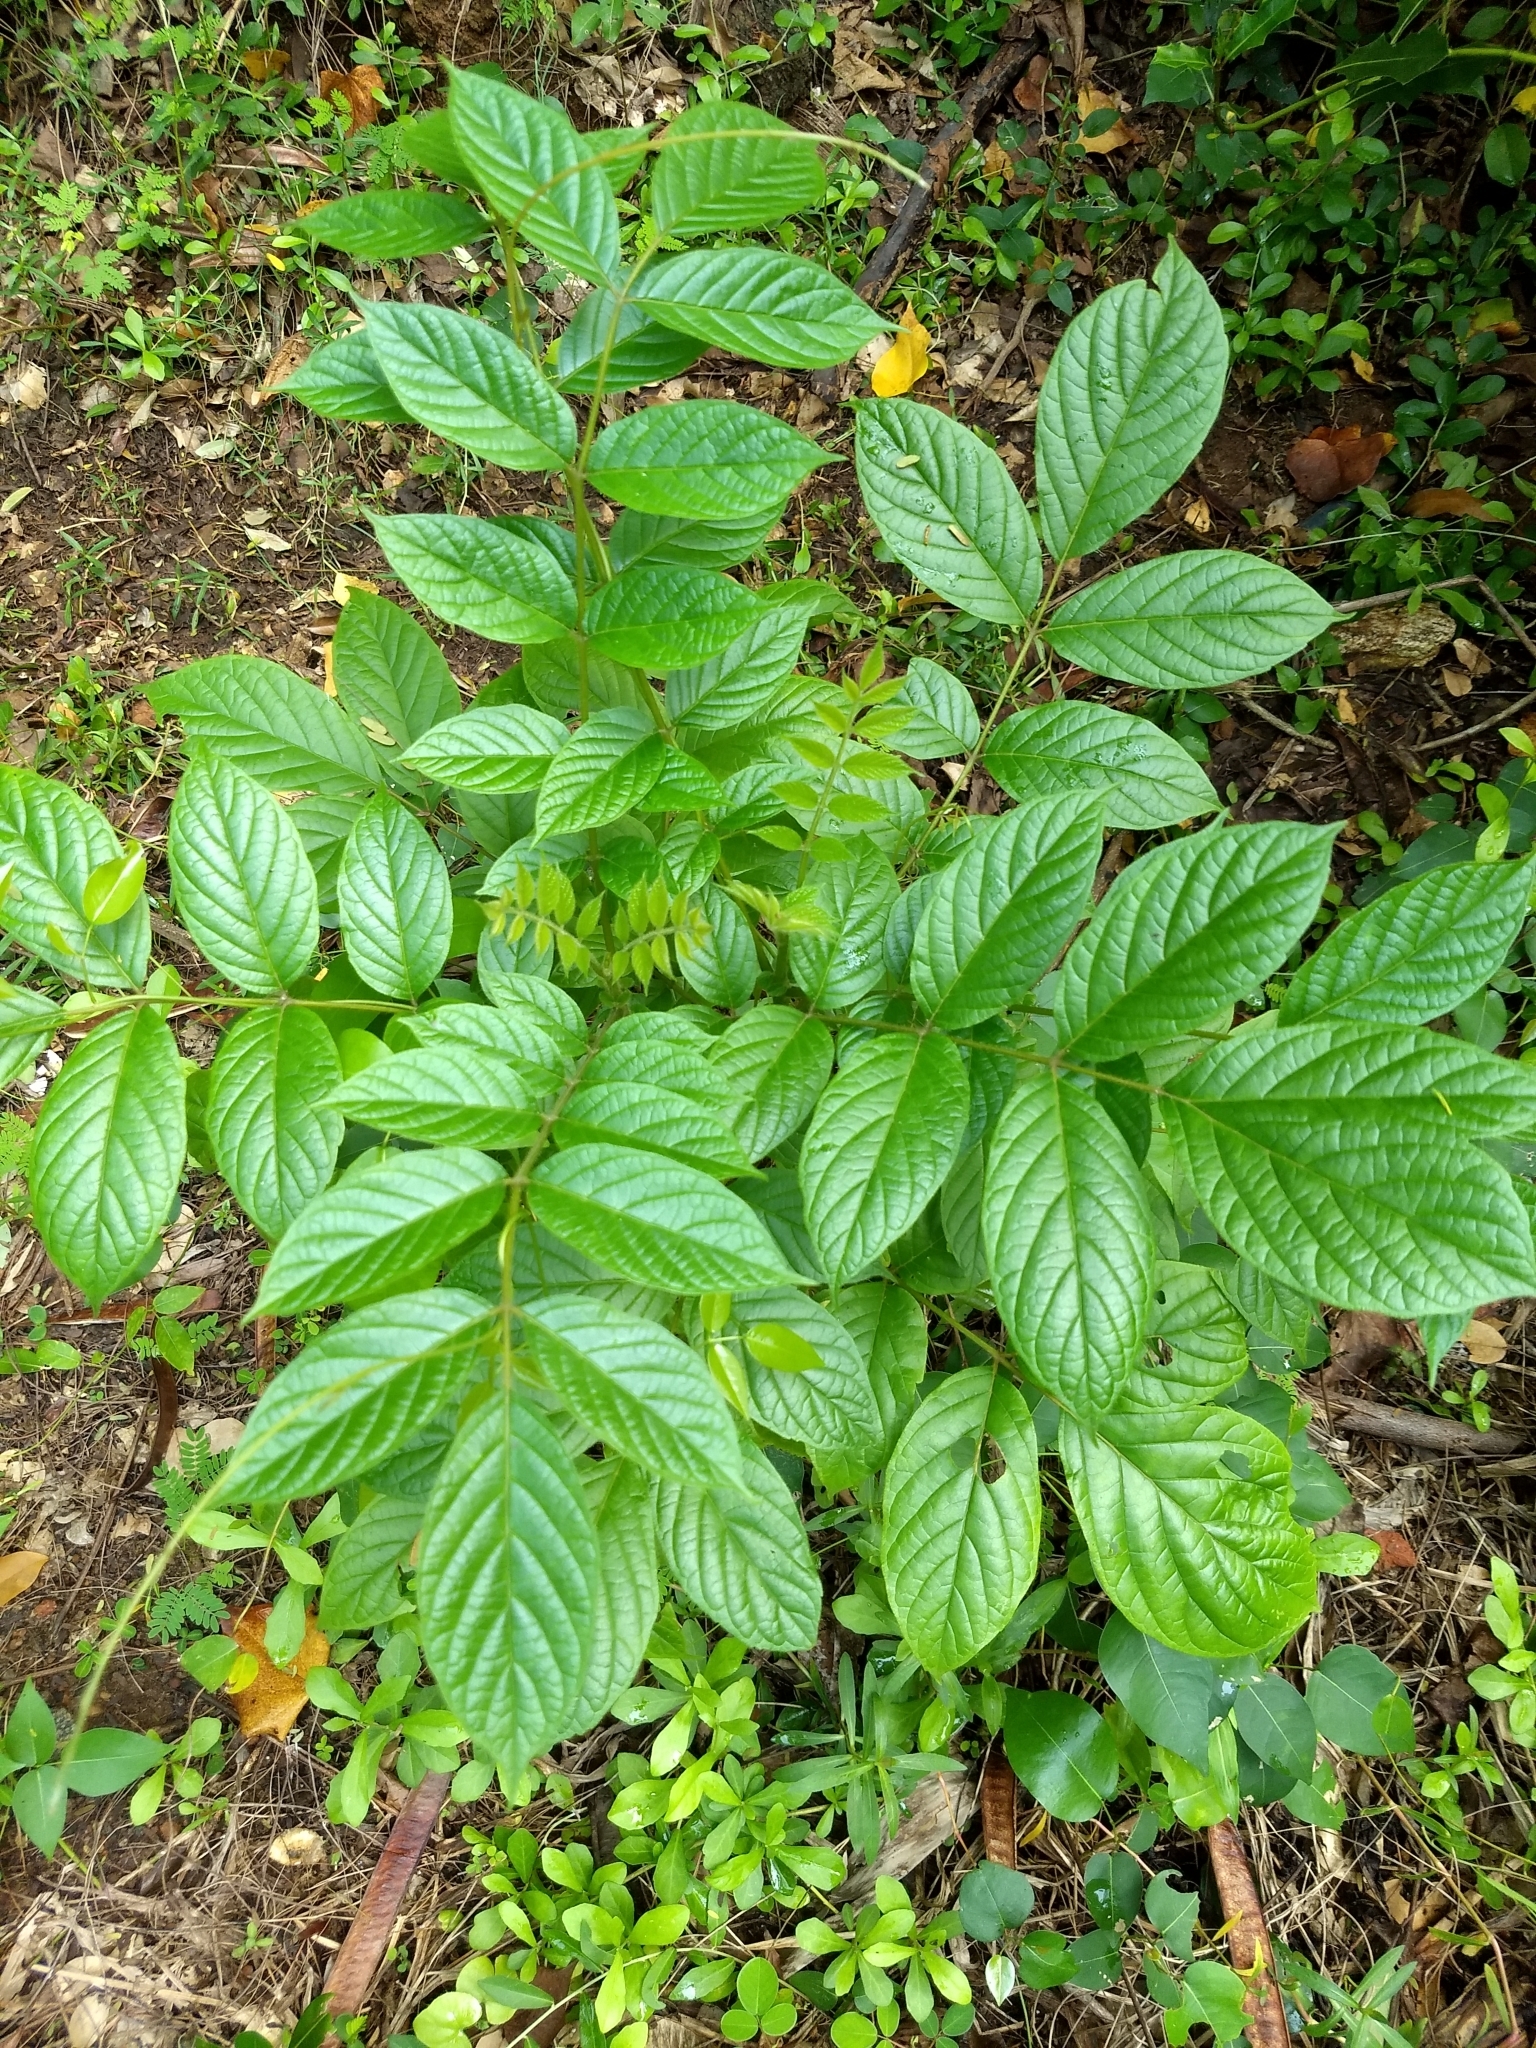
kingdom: Plantae
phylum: Tracheophyta
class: Magnoliopsida
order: Lamiales
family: Bignoniaceae
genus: Spathodea
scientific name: Spathodea campanulata
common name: African tuliptree
